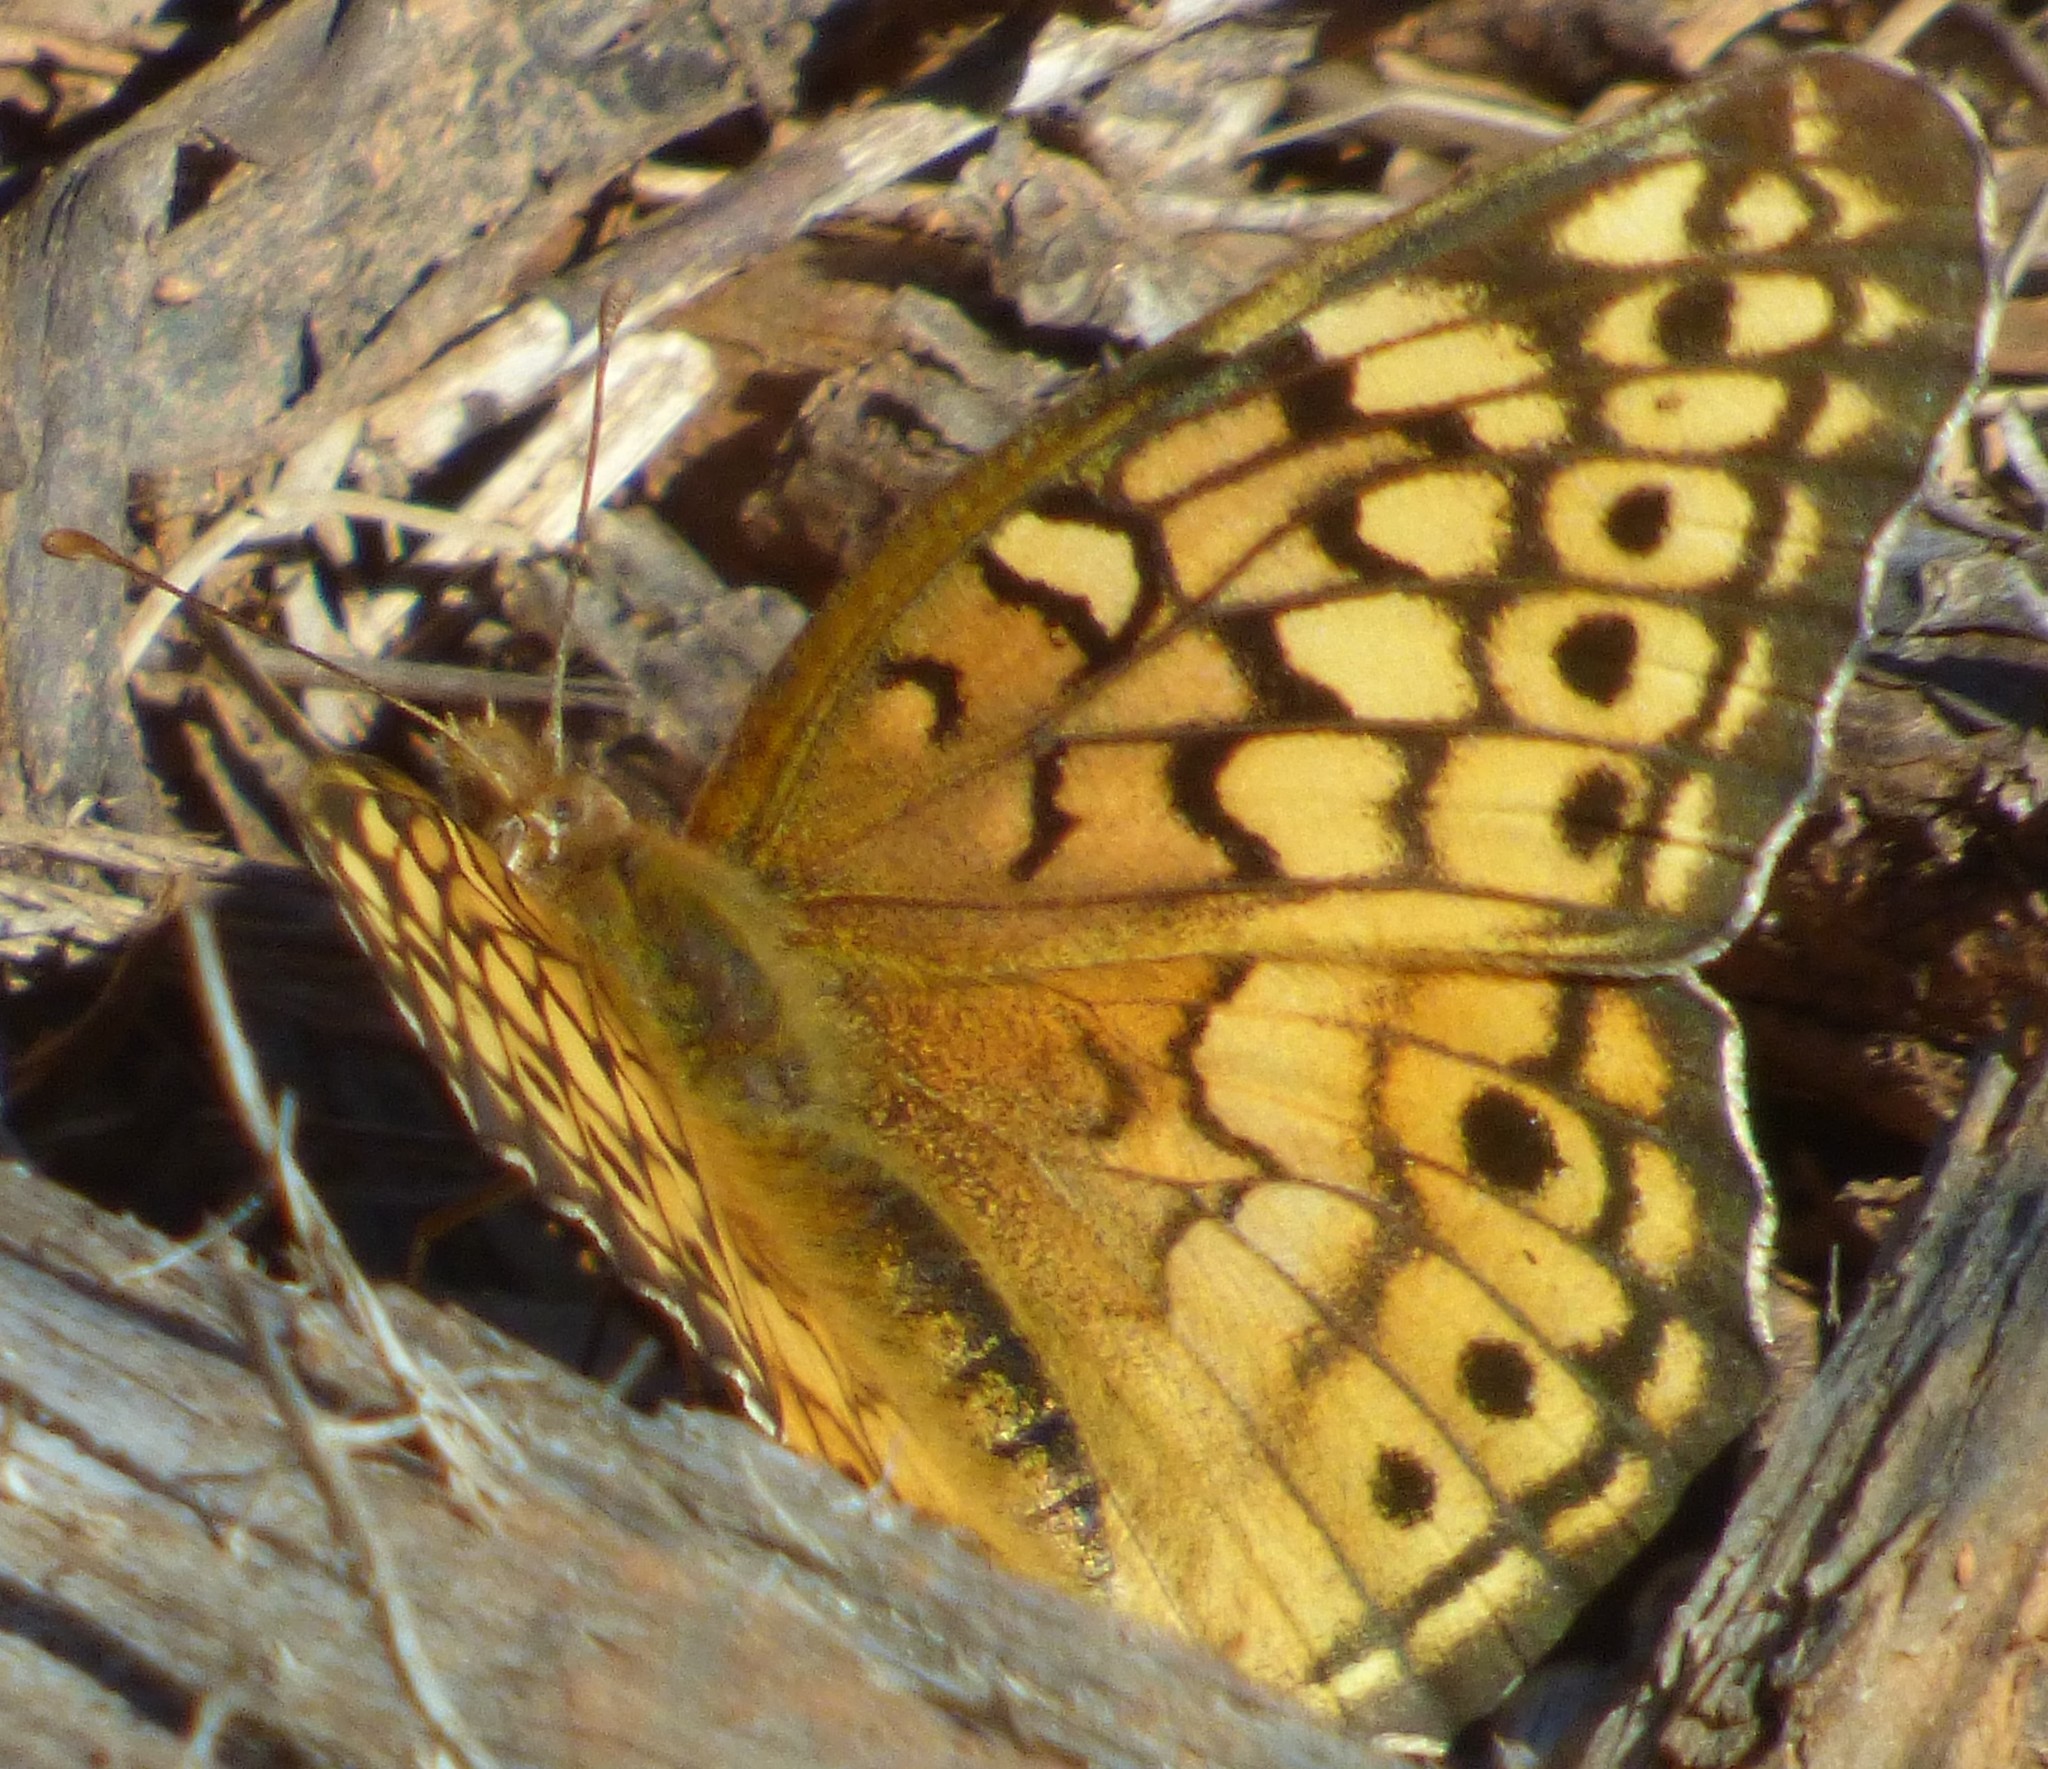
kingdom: Animalia
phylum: Arthropoda
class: Insecta
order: Lepidoptera
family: Nymphalidae
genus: Euptoieta
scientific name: Euptoieta claudia
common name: Variegated fritillary
